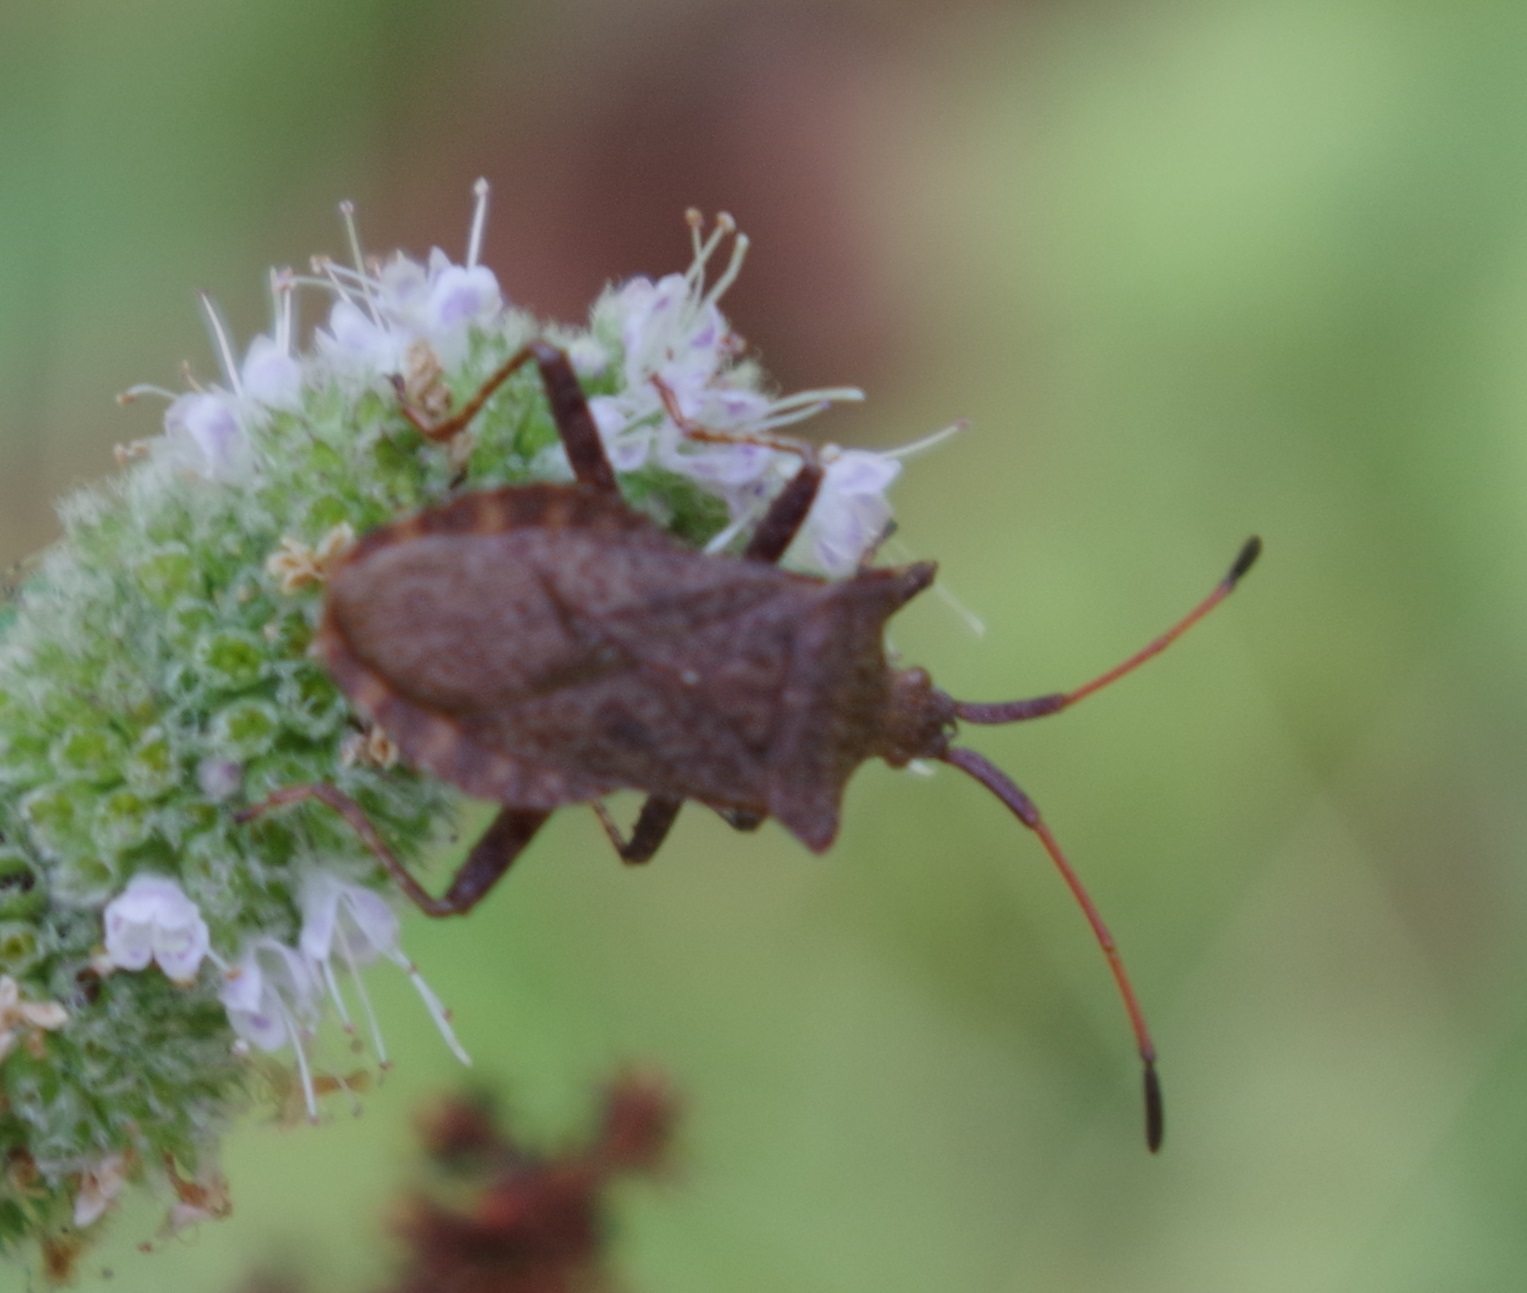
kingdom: Animalia
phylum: Arthropoda
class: Insecta
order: Hemiptera
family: Coreidae
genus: Coreus
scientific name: Coreus marginatus
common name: Dock bug
